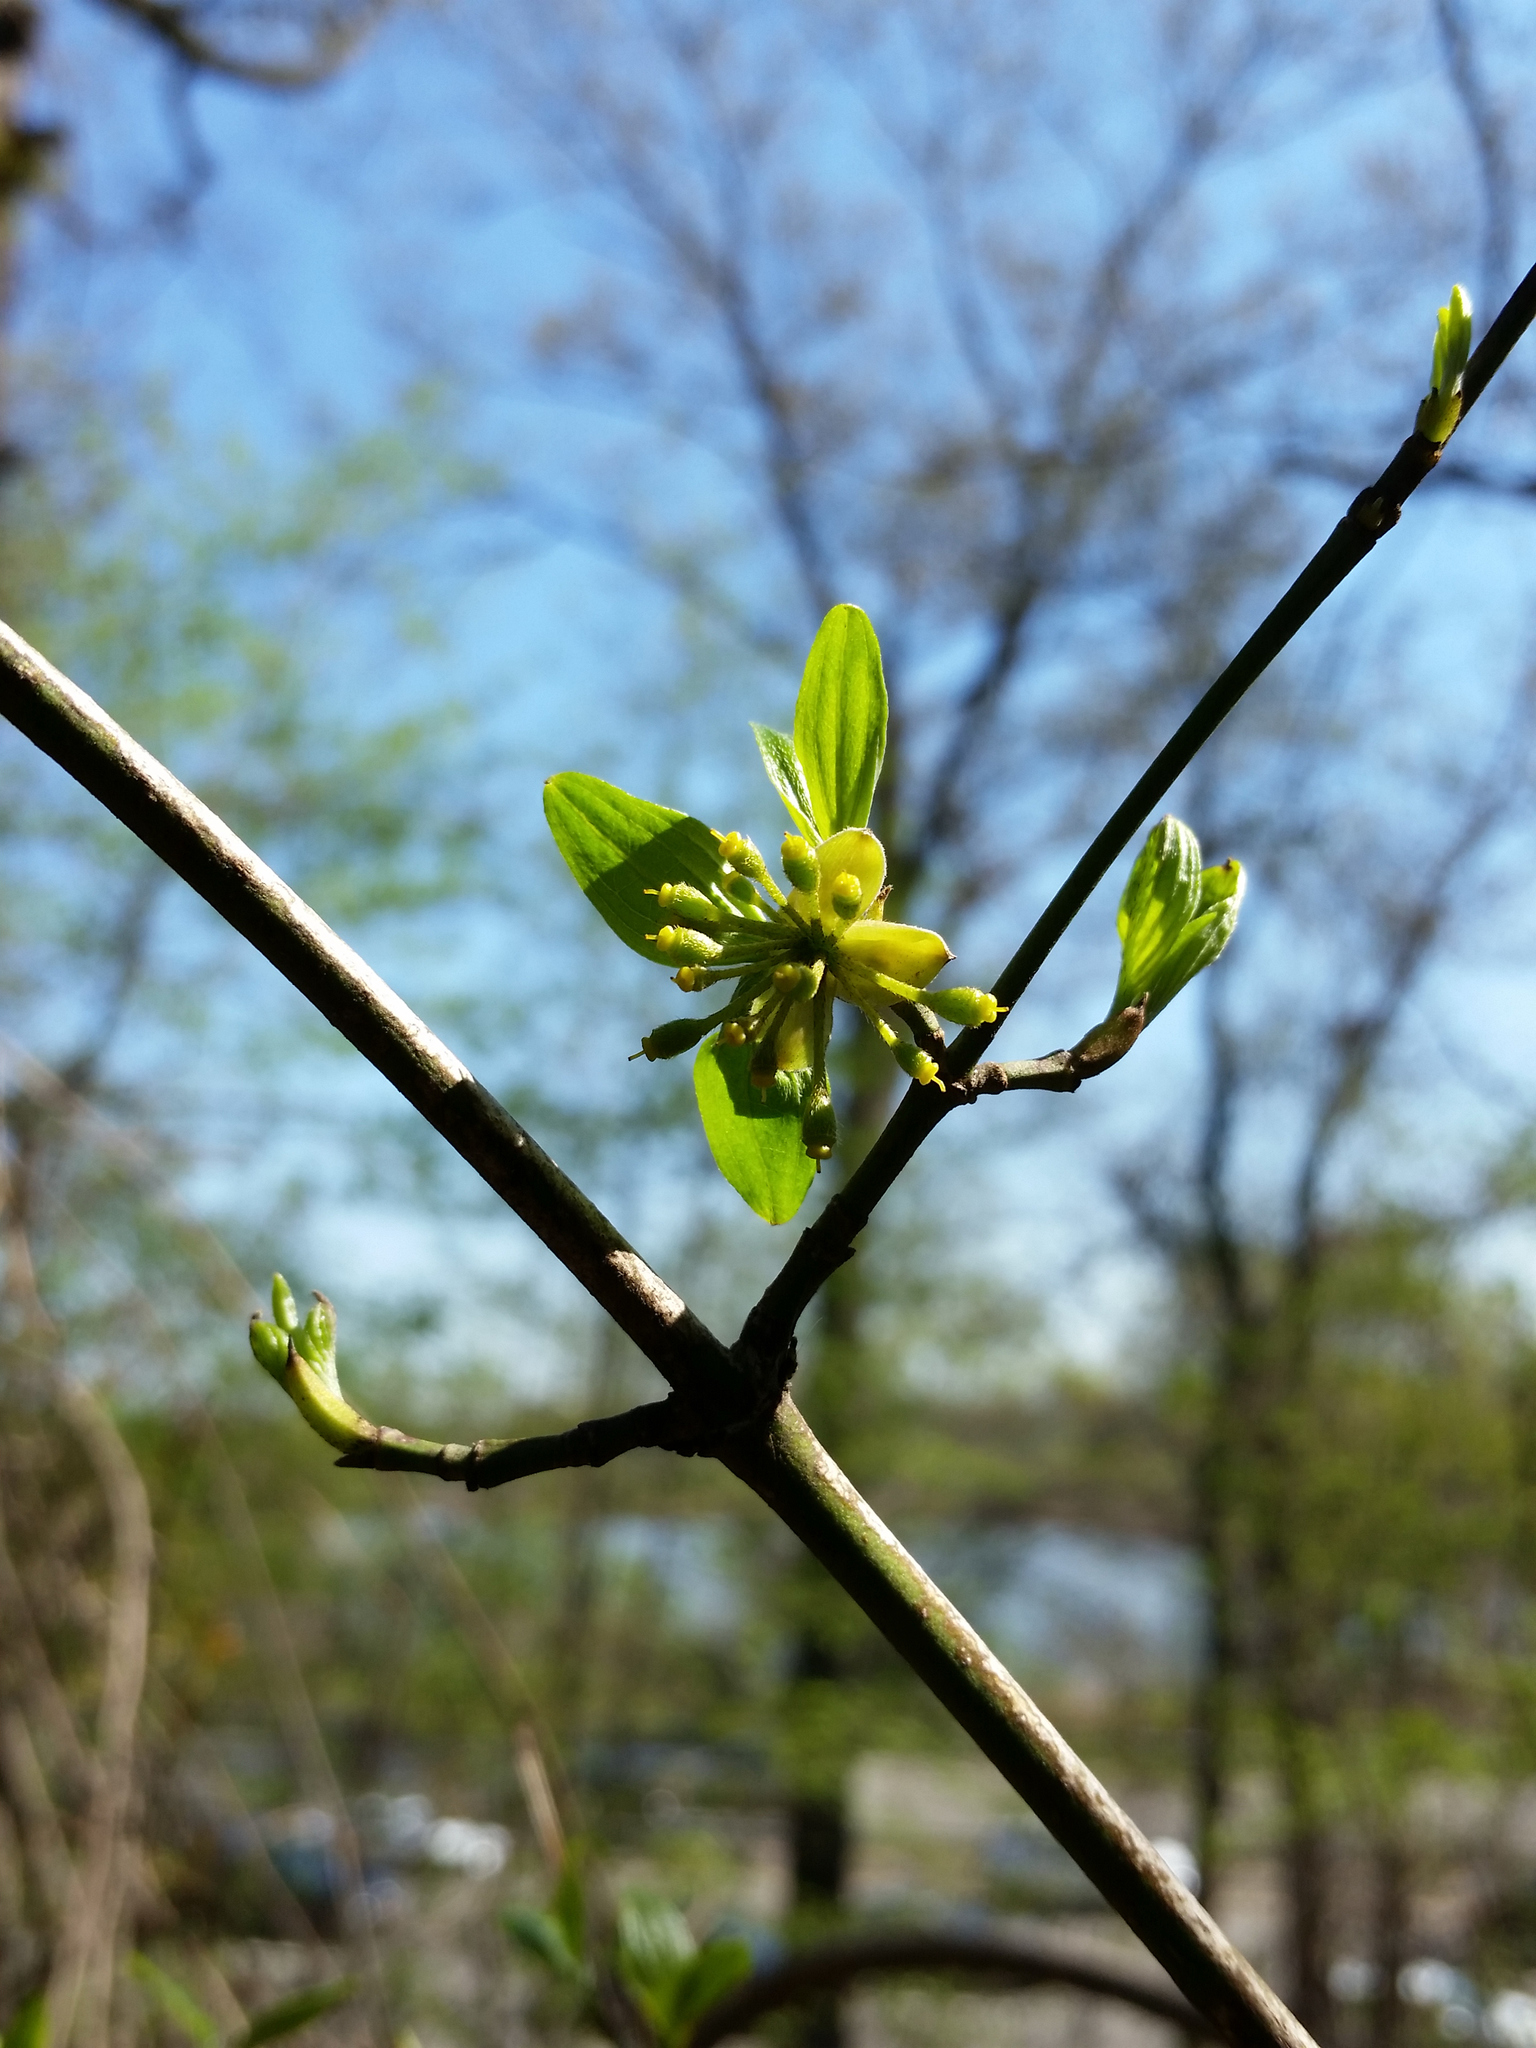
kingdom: Plantae
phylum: Tracheophyta
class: Magnoliopsida
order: Cornales
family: Cornaceae
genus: Cornus
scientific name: Cornus mas
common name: Cornelian-cherry
